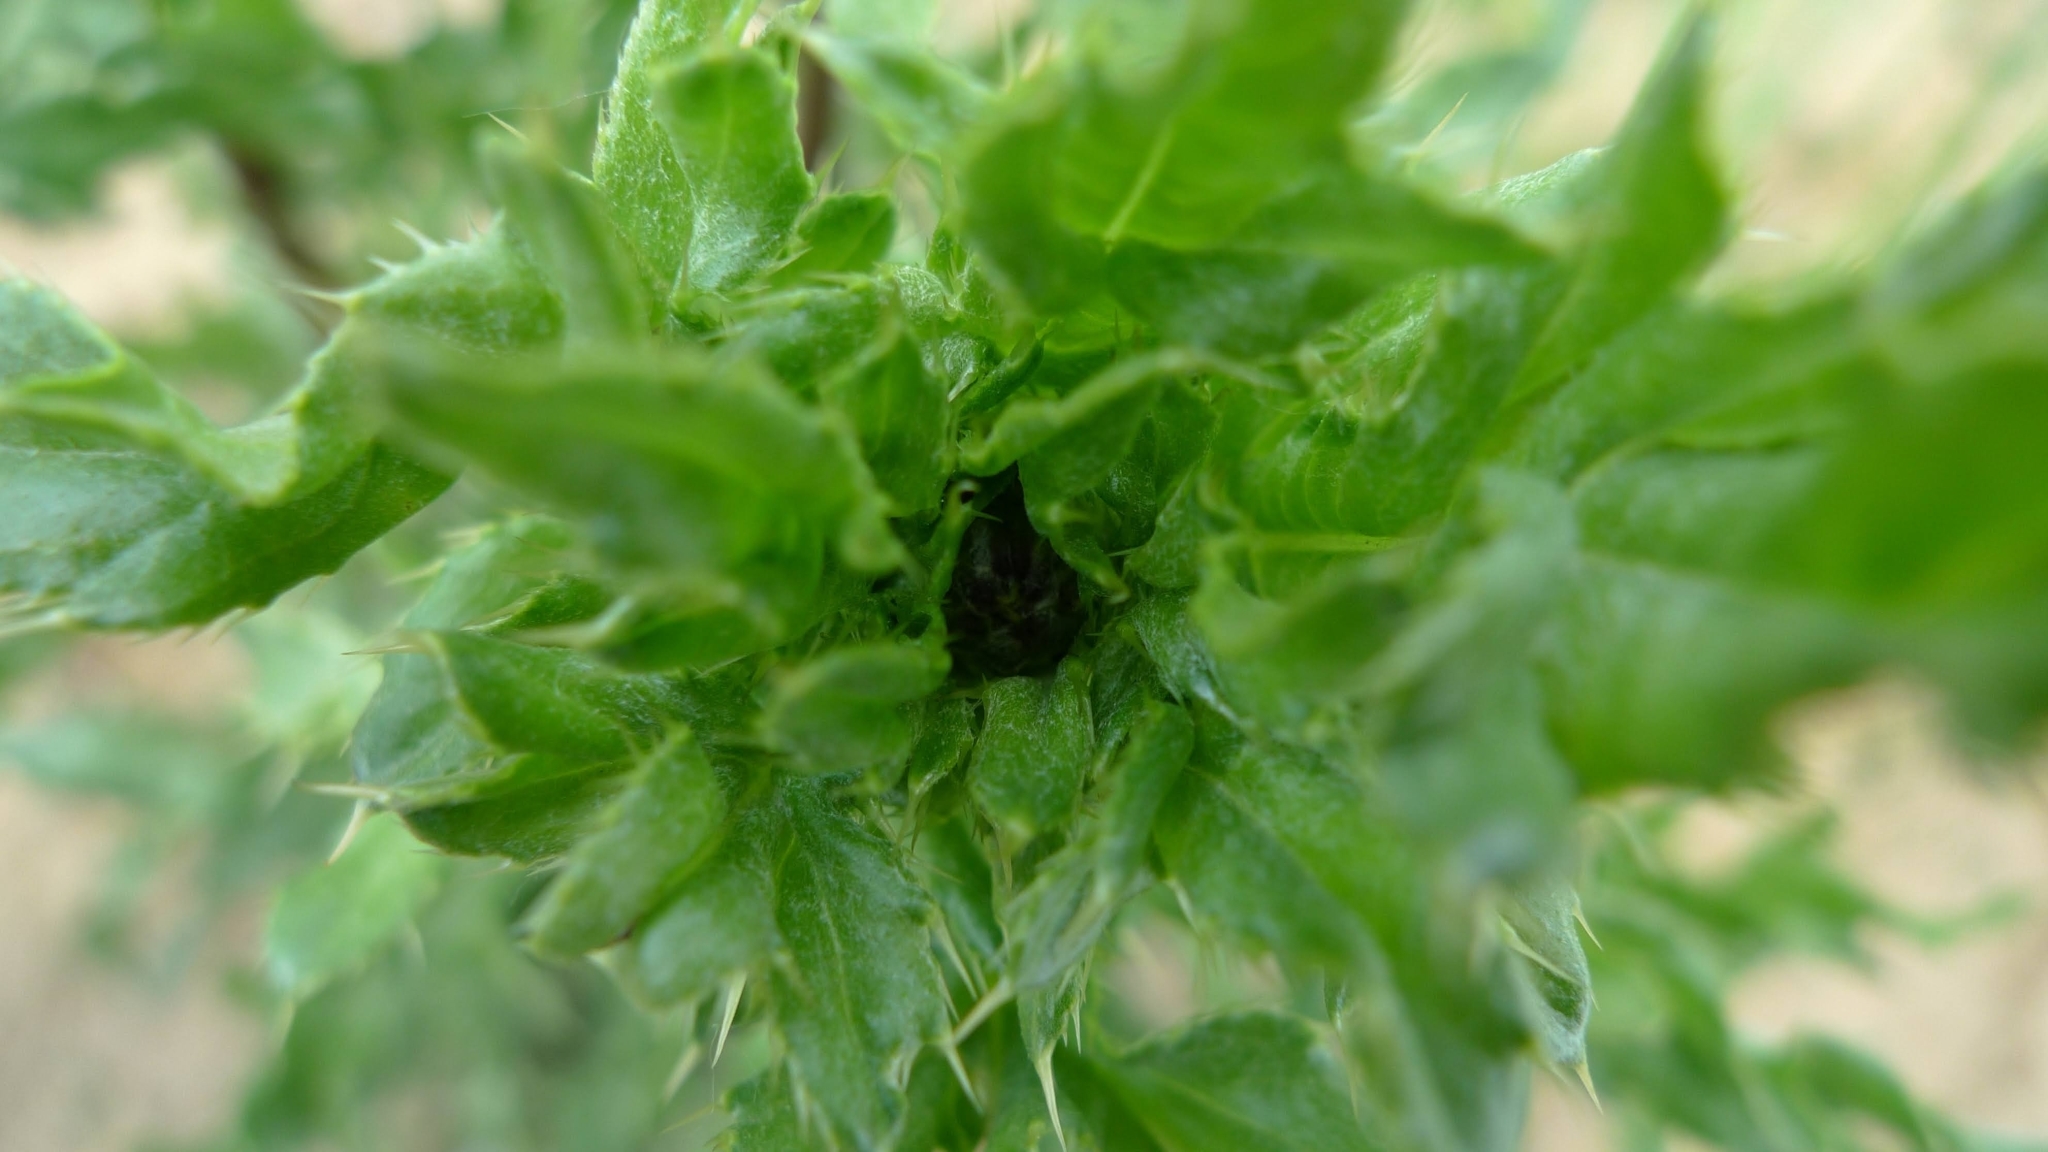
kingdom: Plantae
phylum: Tracheophyta
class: Magnoliopsida
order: Asterales
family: Asteraceae
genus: Cirsium
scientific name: Cirsium arvense
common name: Creeping thistle
